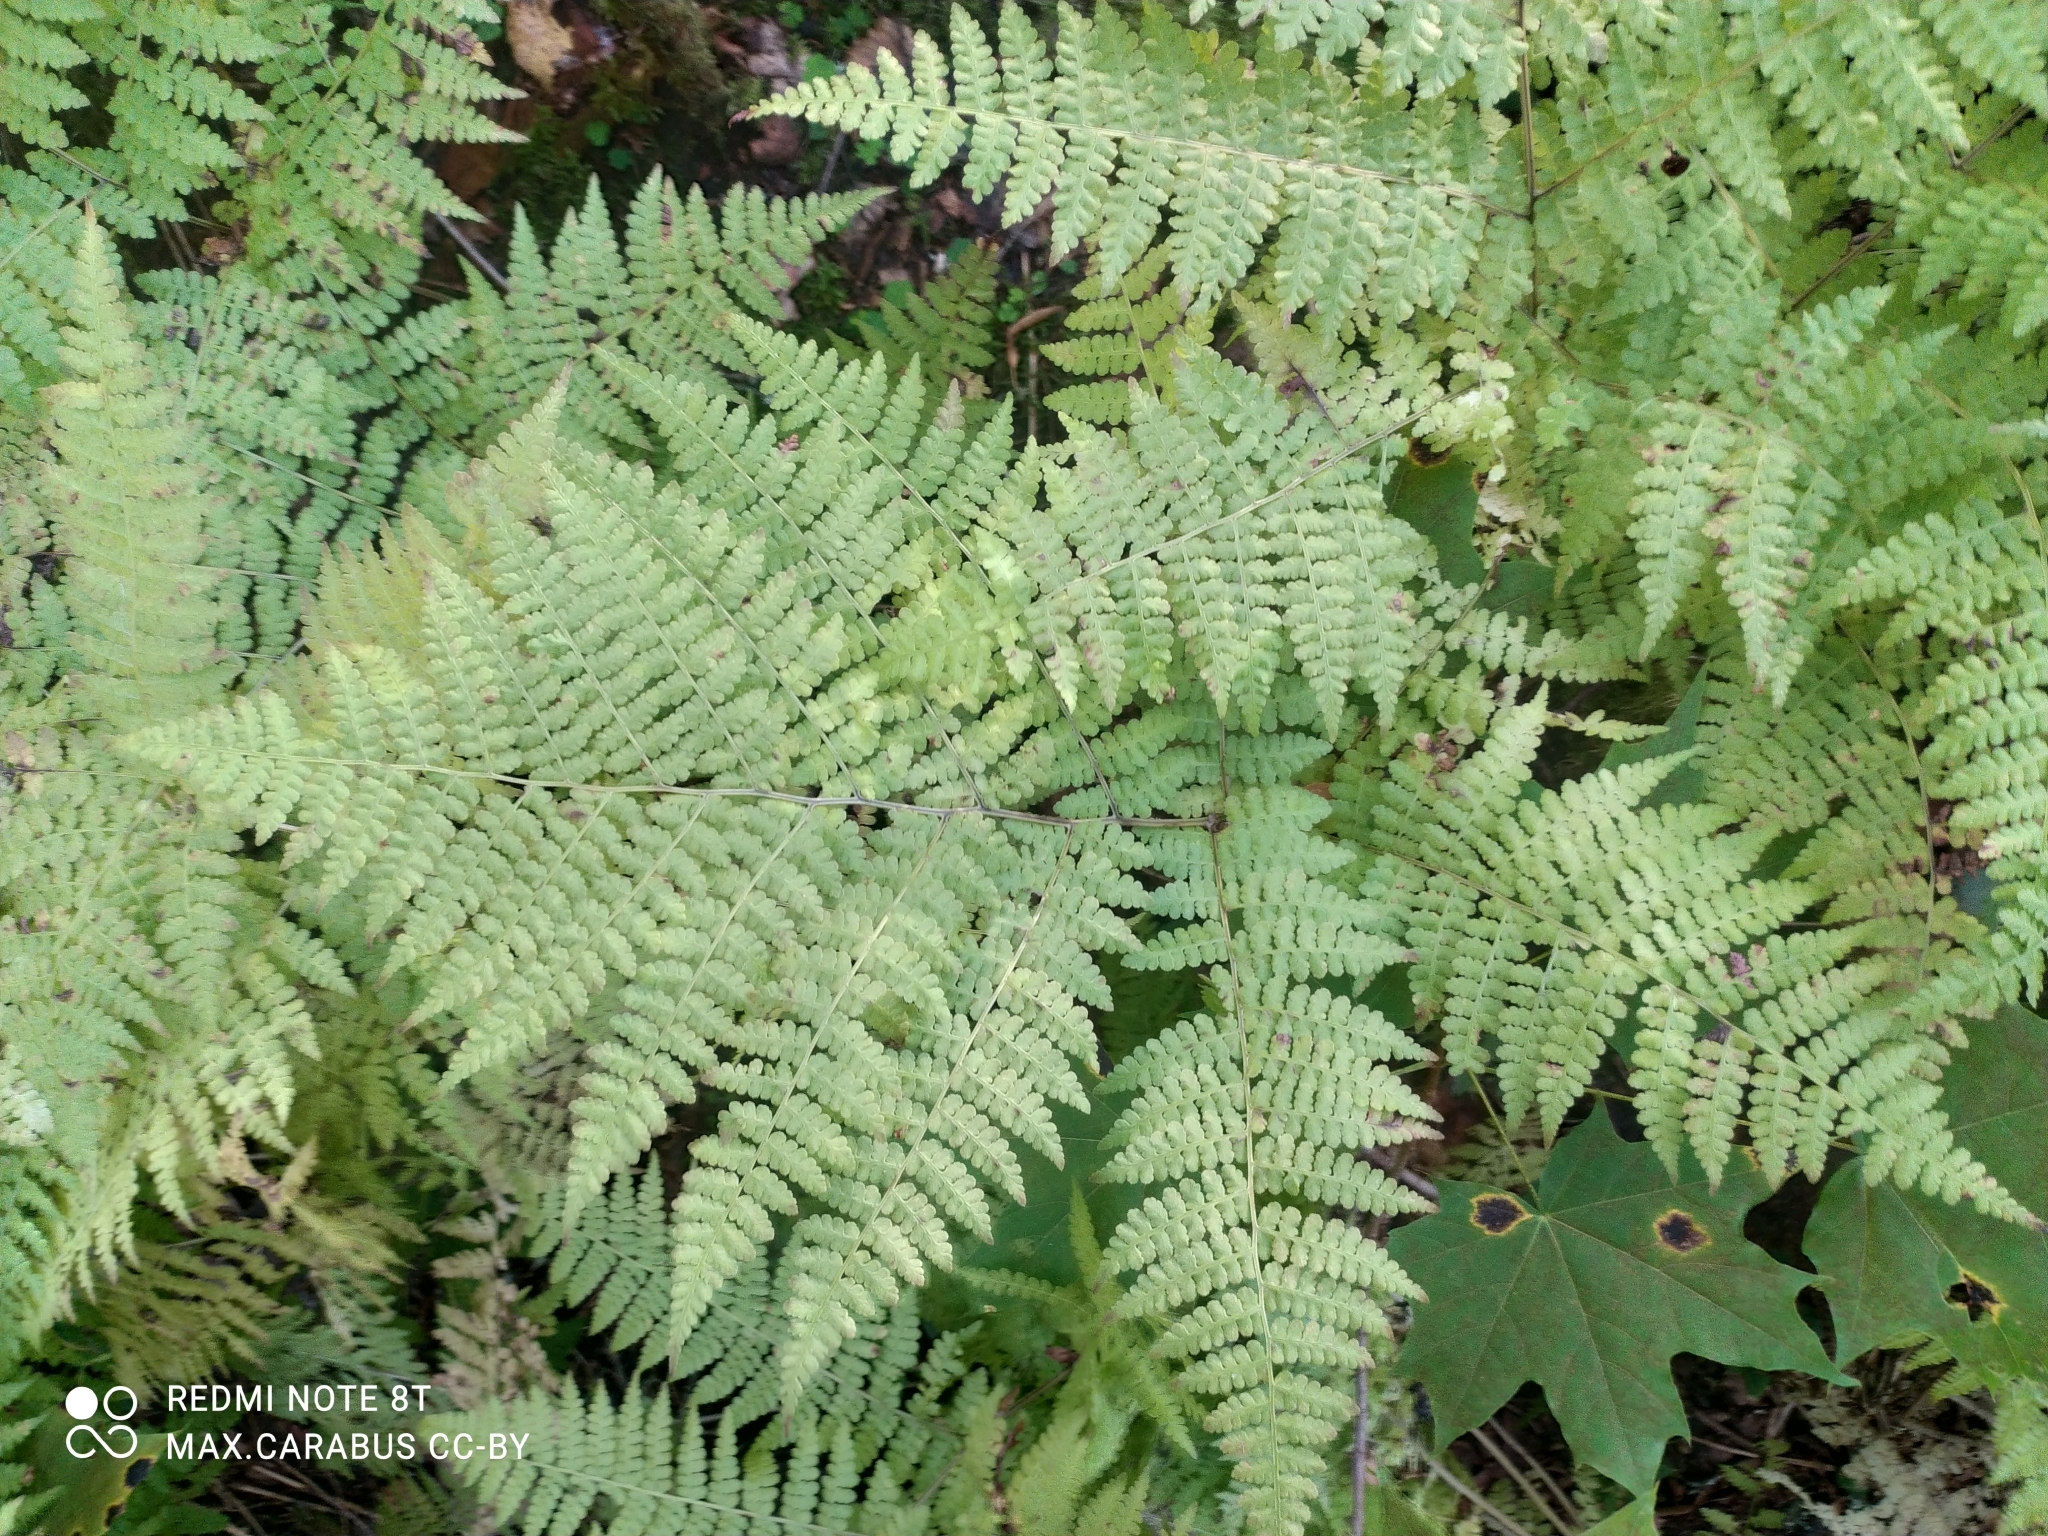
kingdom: Plantae
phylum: Tracheophyta
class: Polypodiopsida
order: Polypodiales
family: Athyriaceae
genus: Diplazium
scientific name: Diplazium sibiricum
